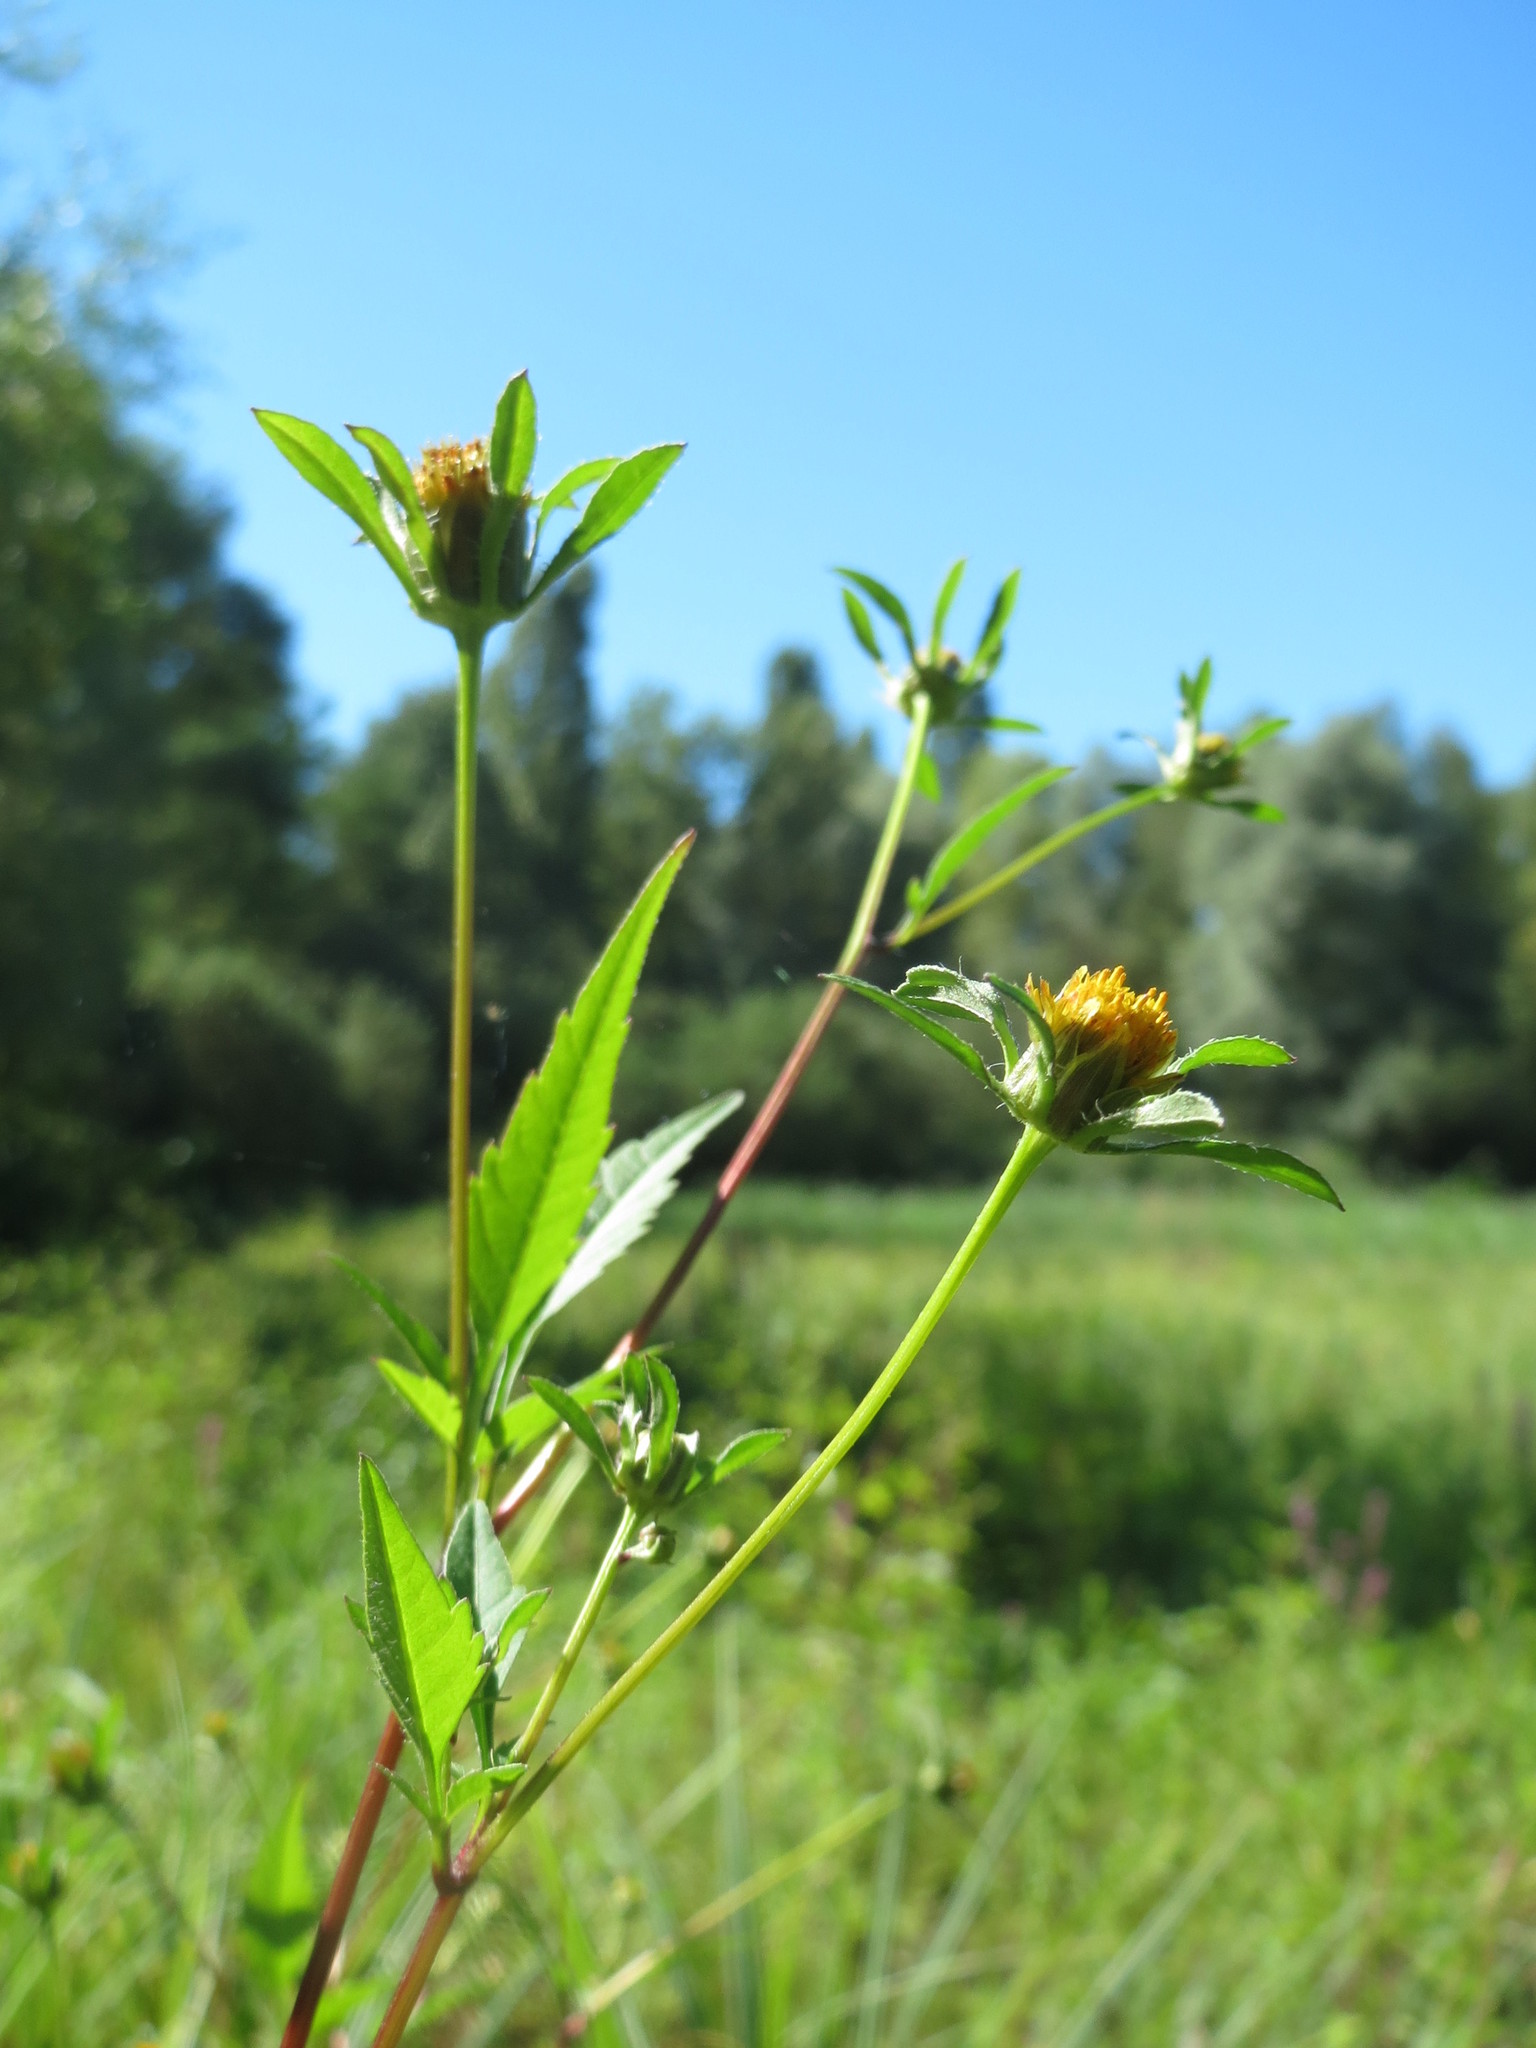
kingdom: Plantae
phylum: Tracheophyta
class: Magnoliopsida
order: Asterales
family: Asteraceae
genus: Bidens
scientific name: Bidens frondosa
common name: Beggarticks
